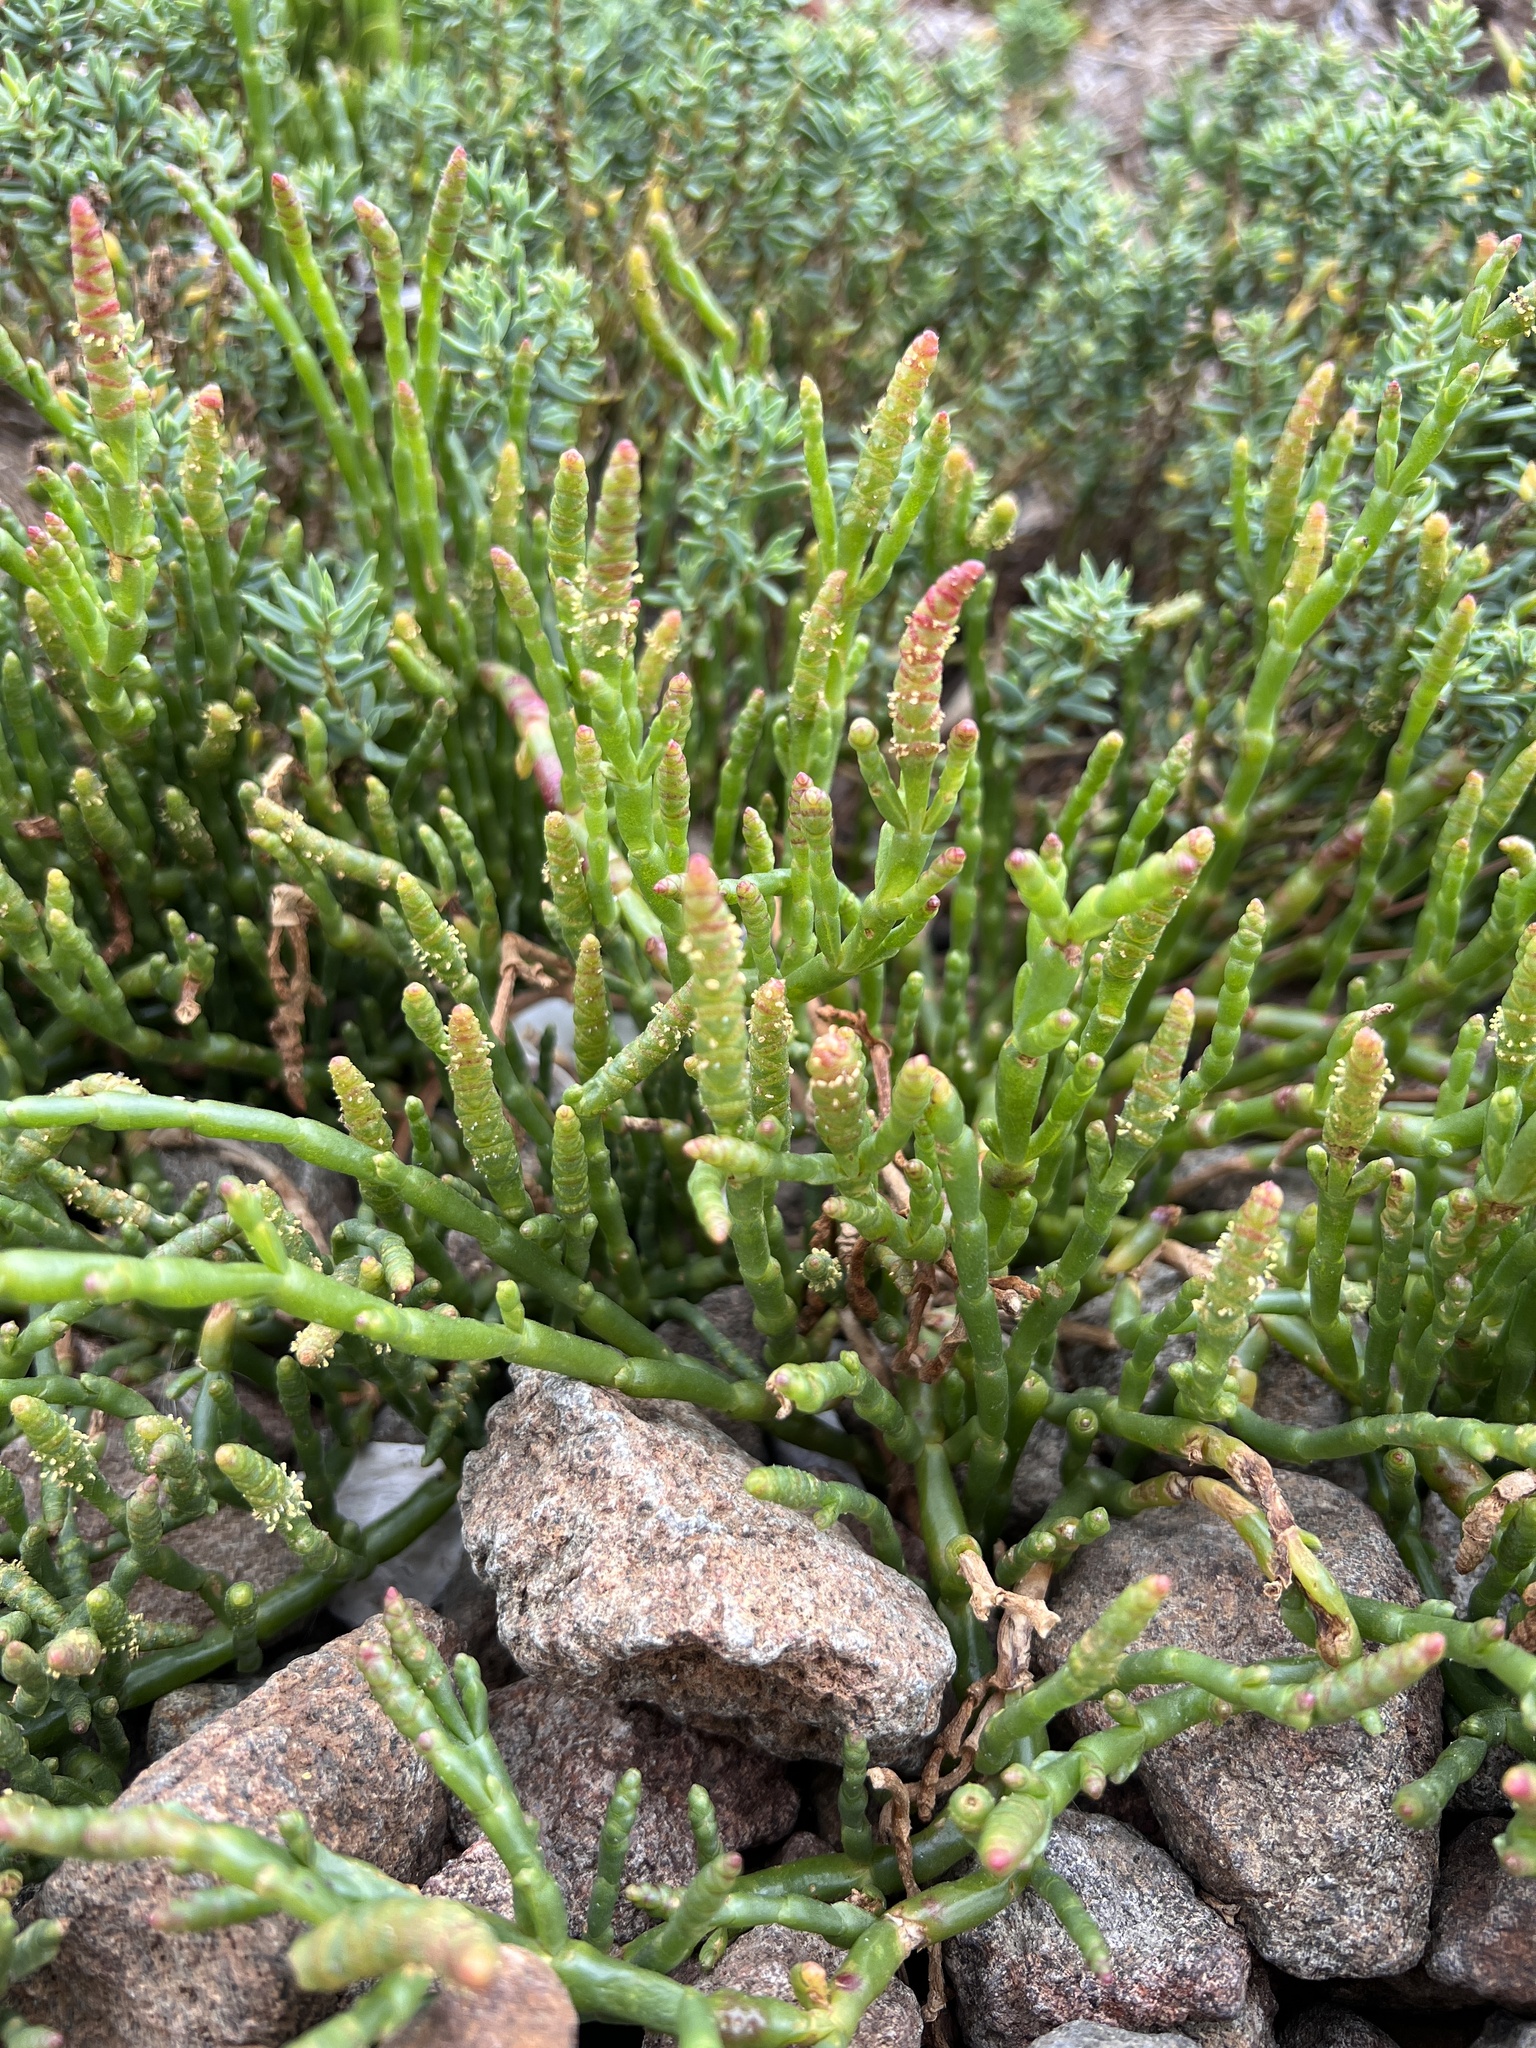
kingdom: Plantae
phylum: Tracheophyta
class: Magnoliopsida
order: Caryophyllales
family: Amaranthaceae
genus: Salicornia
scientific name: Salicornia quinqueflora
